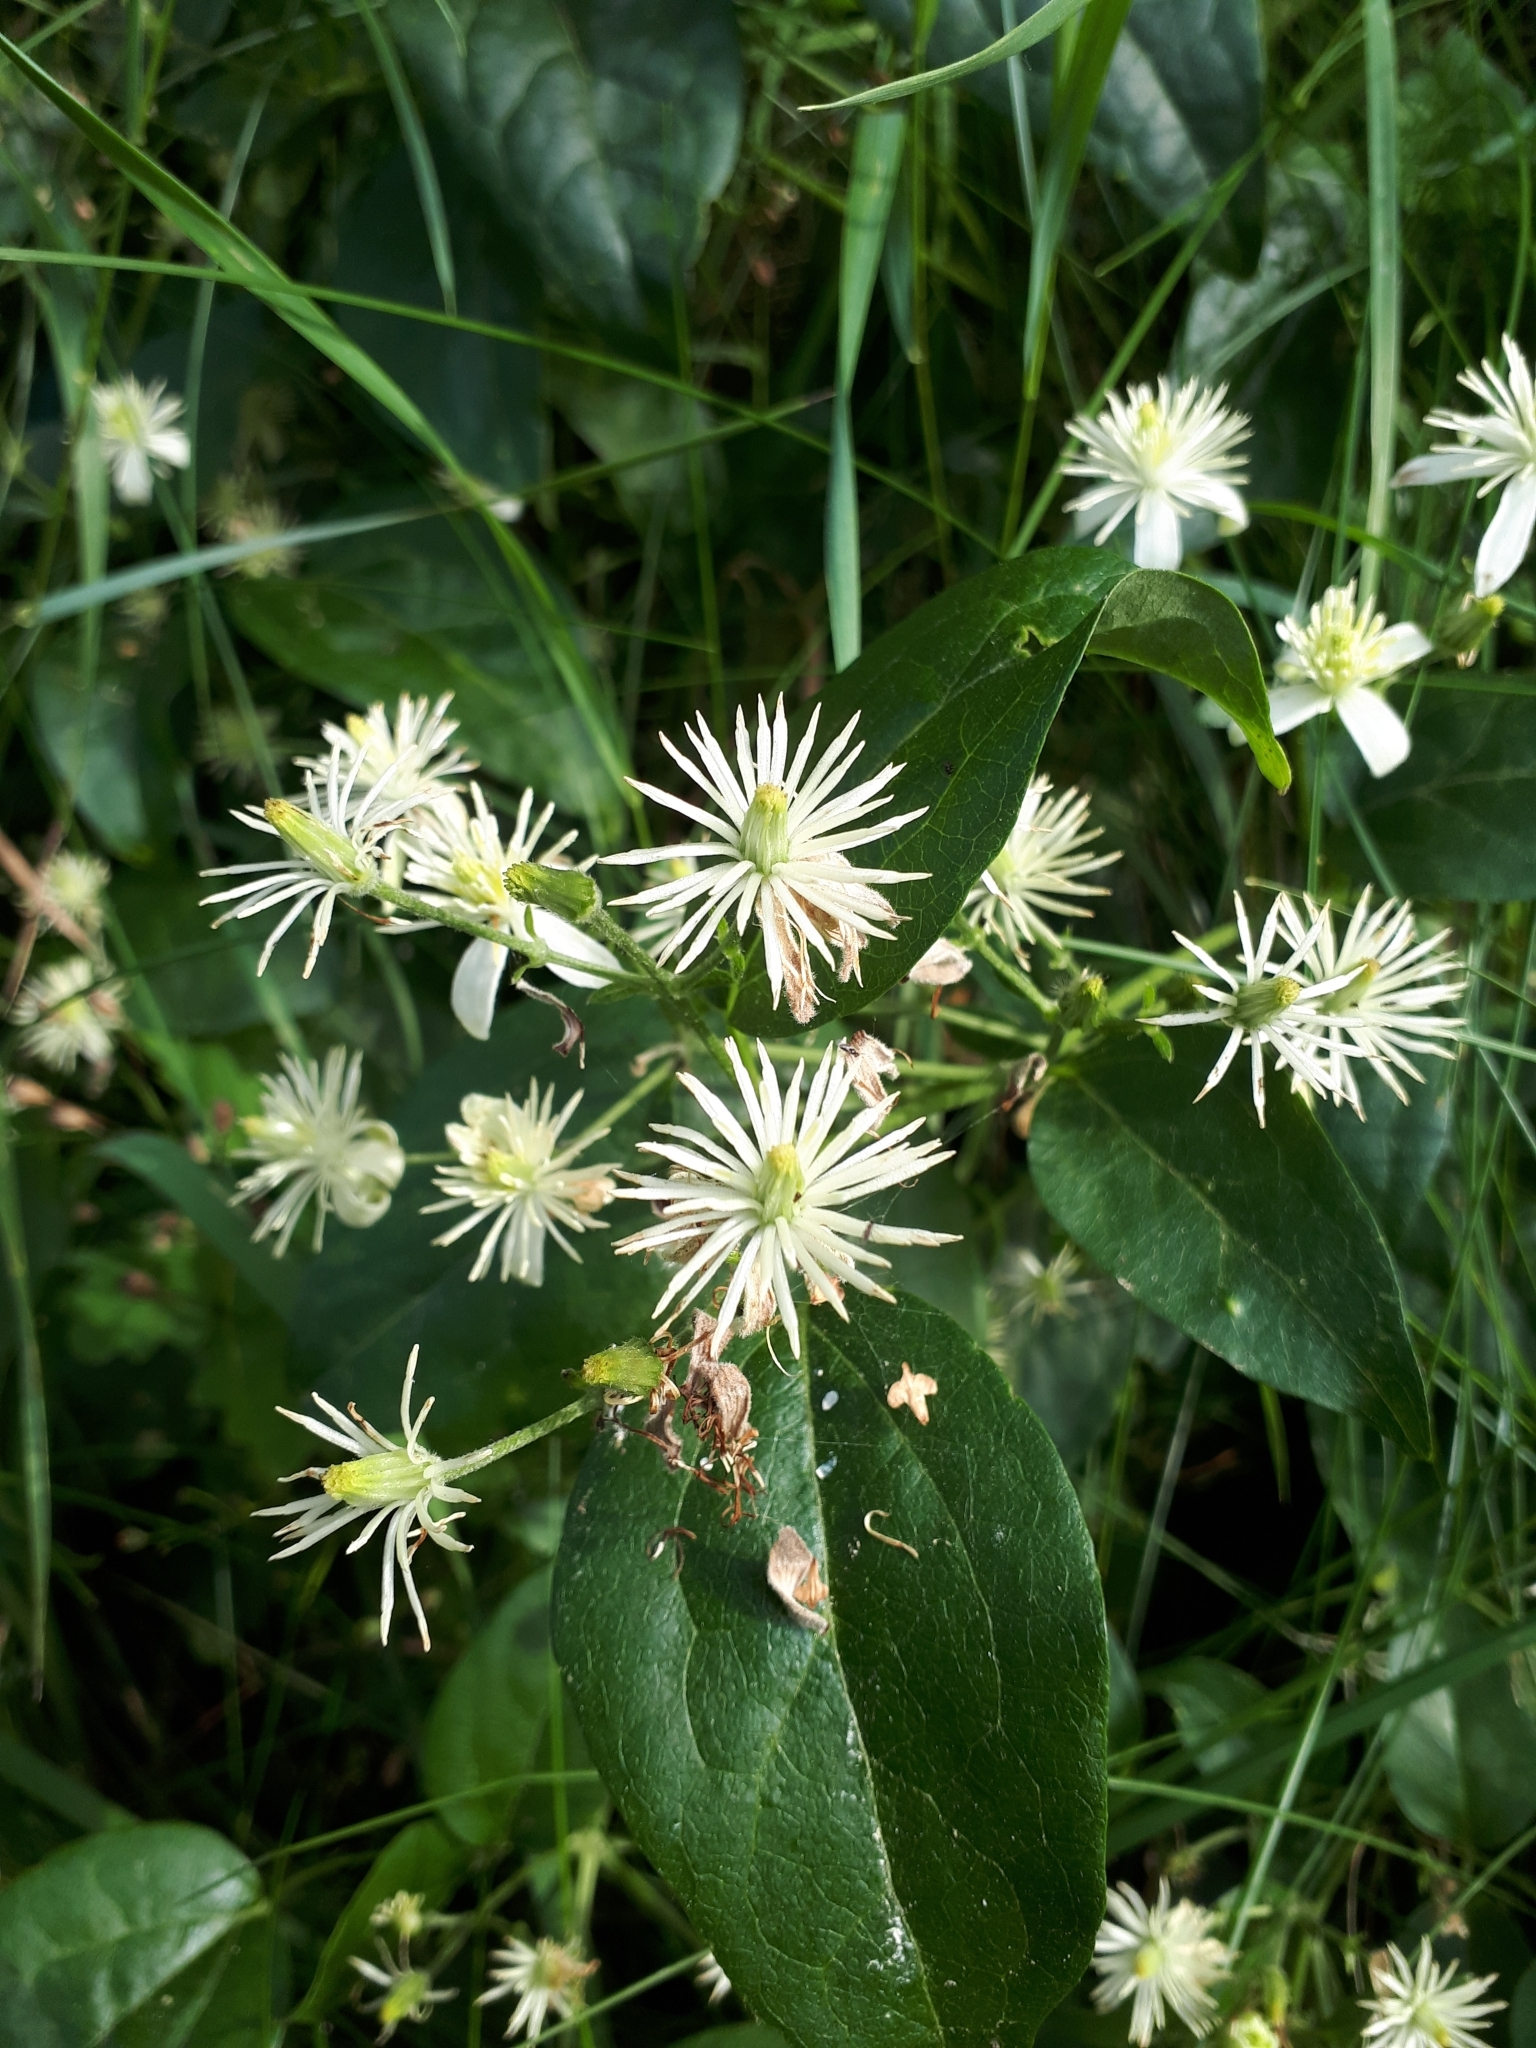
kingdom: Plantae
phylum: Tracheophyta
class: Magnoliopsida
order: Ranunculales
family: Ranunculaceae
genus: Clematis
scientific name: Clematis vitalba
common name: Evergreen clematis
